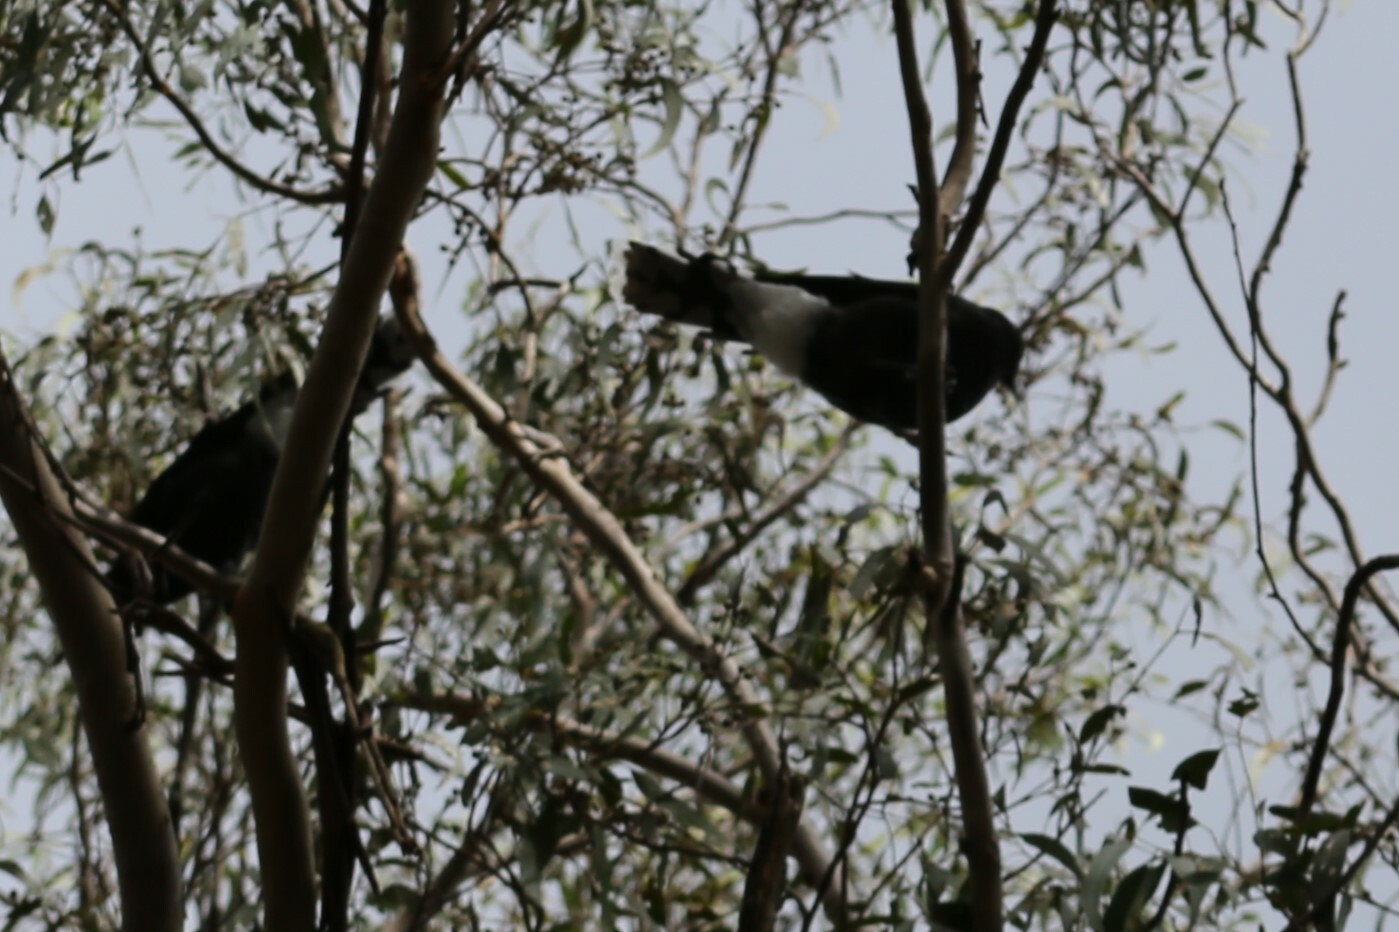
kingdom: Animalia
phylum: Chordata
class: Aves
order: Passeriformes
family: Cracticidae
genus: Strepera
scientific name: Strepera graculina
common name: Pied currawong
